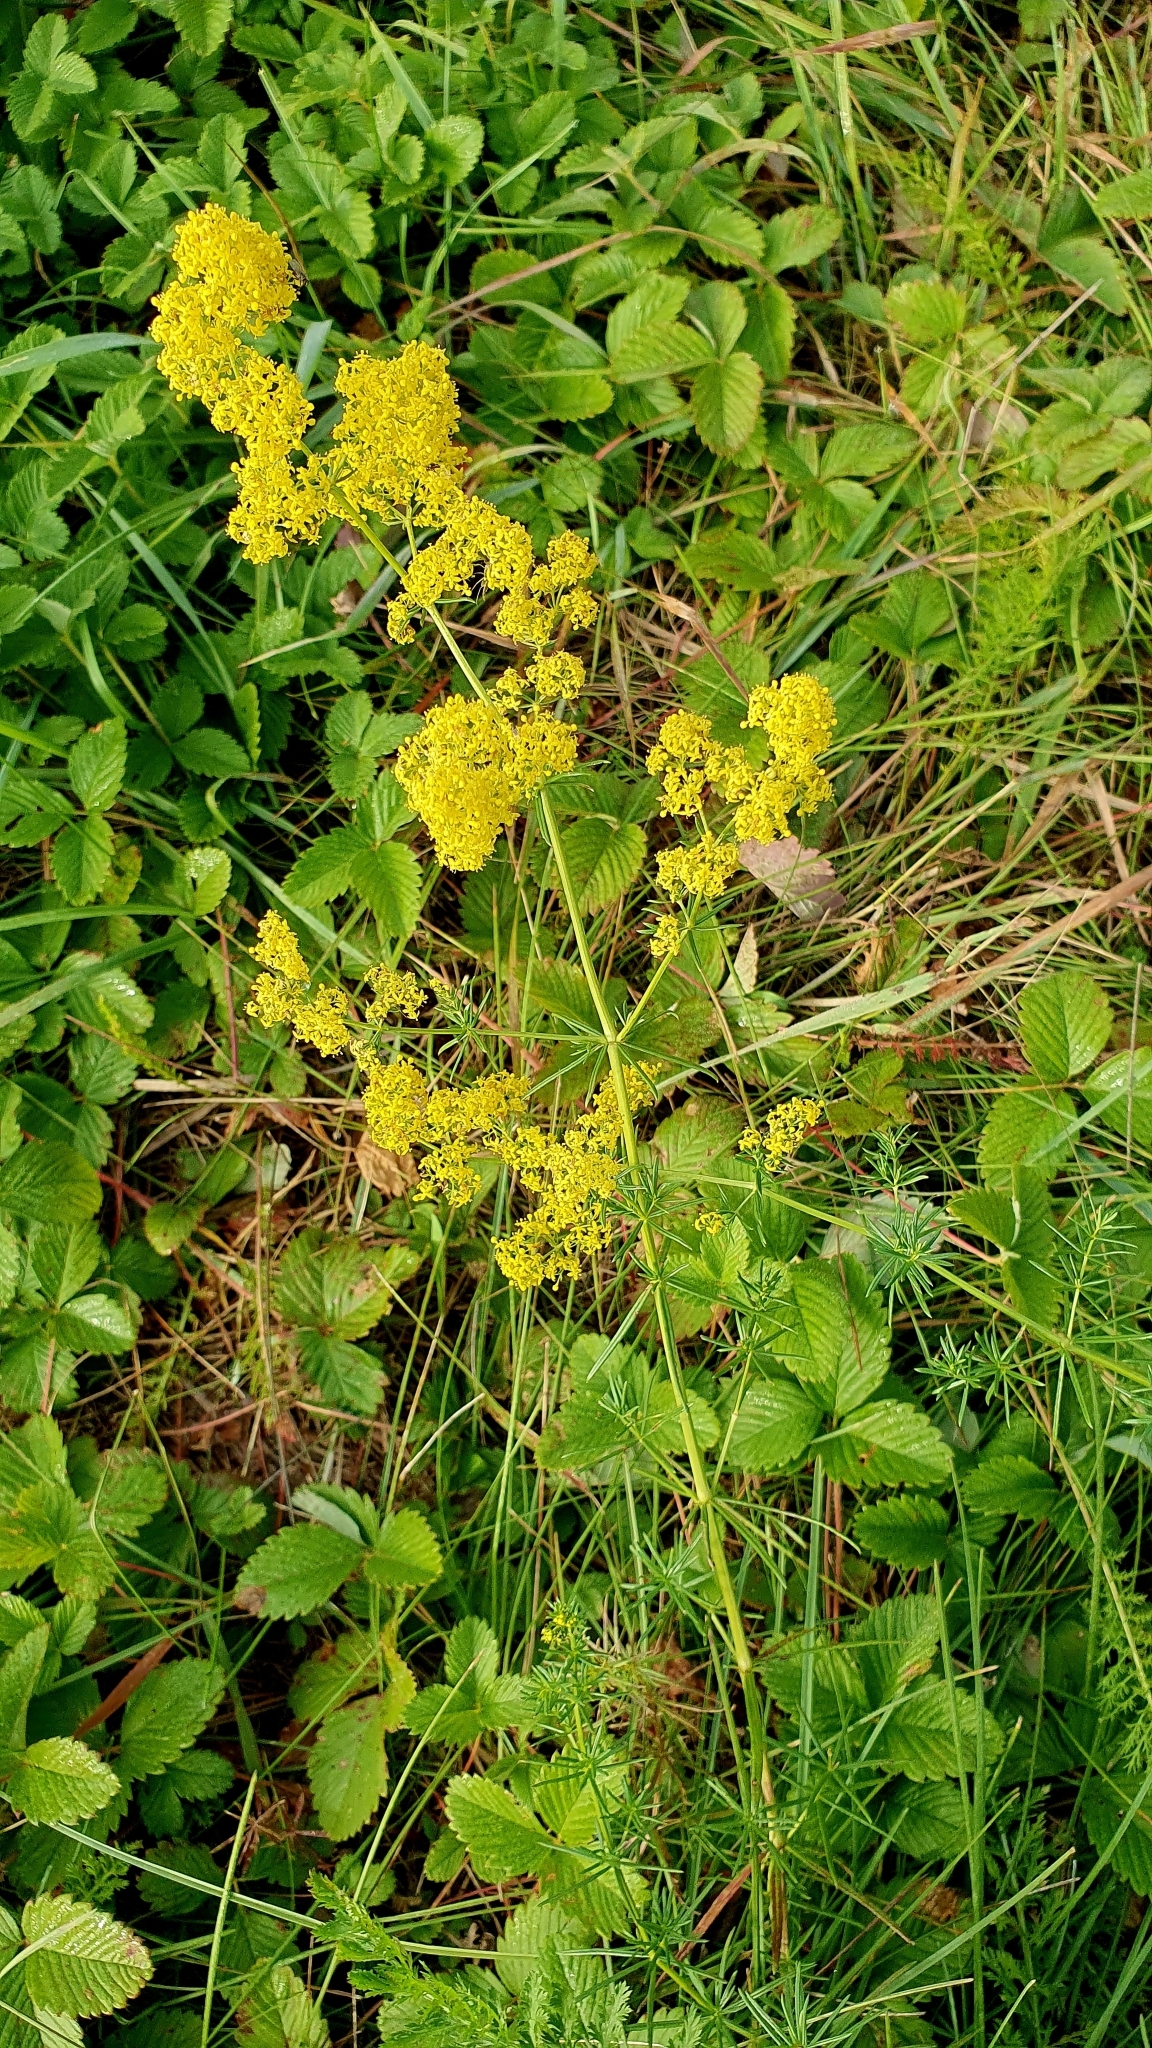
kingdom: Plantae
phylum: Tracheophyta
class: Magnoliopsida
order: Gentianales
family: Rubiaceae
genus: Galium
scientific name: Galium verum
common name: Lady's bedstraw
